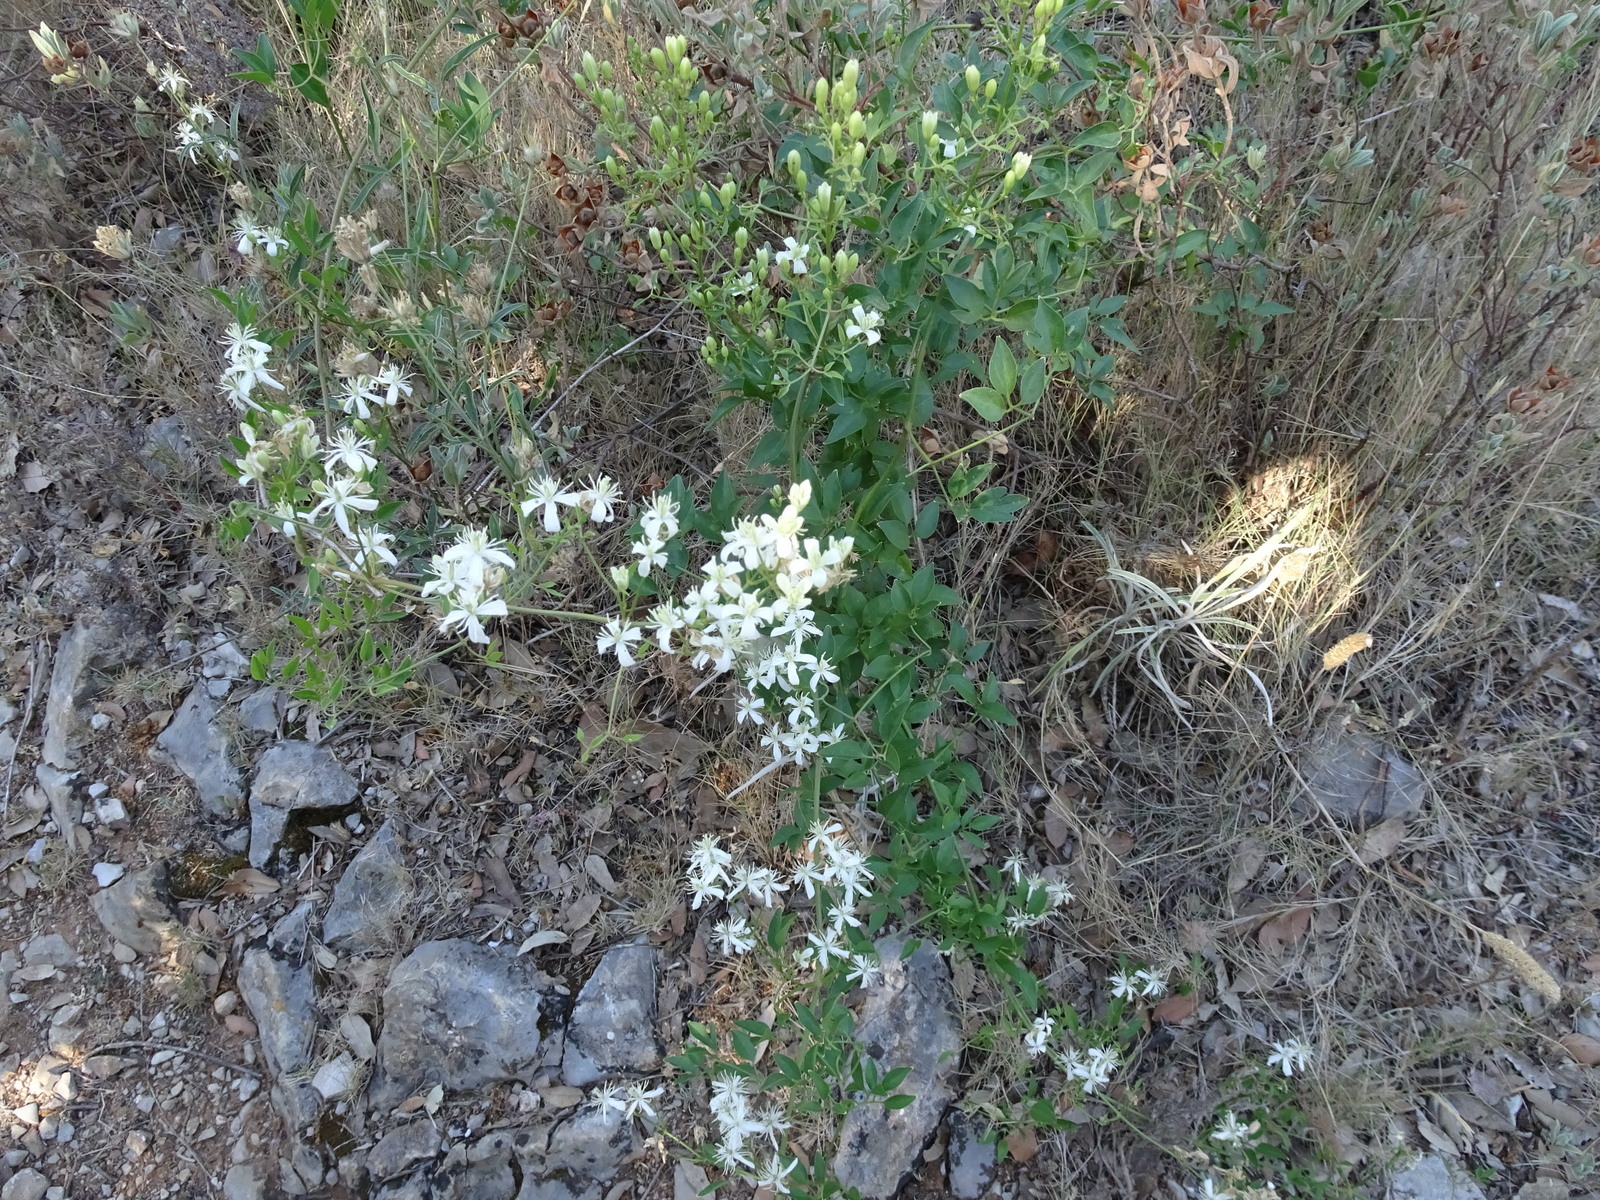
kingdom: Plantae
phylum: Tracheophyta
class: Magnoliopsida
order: Ranunculales
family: Ranunculaceae
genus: Clematis
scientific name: Clematis flammula
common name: Virgin's-bower
